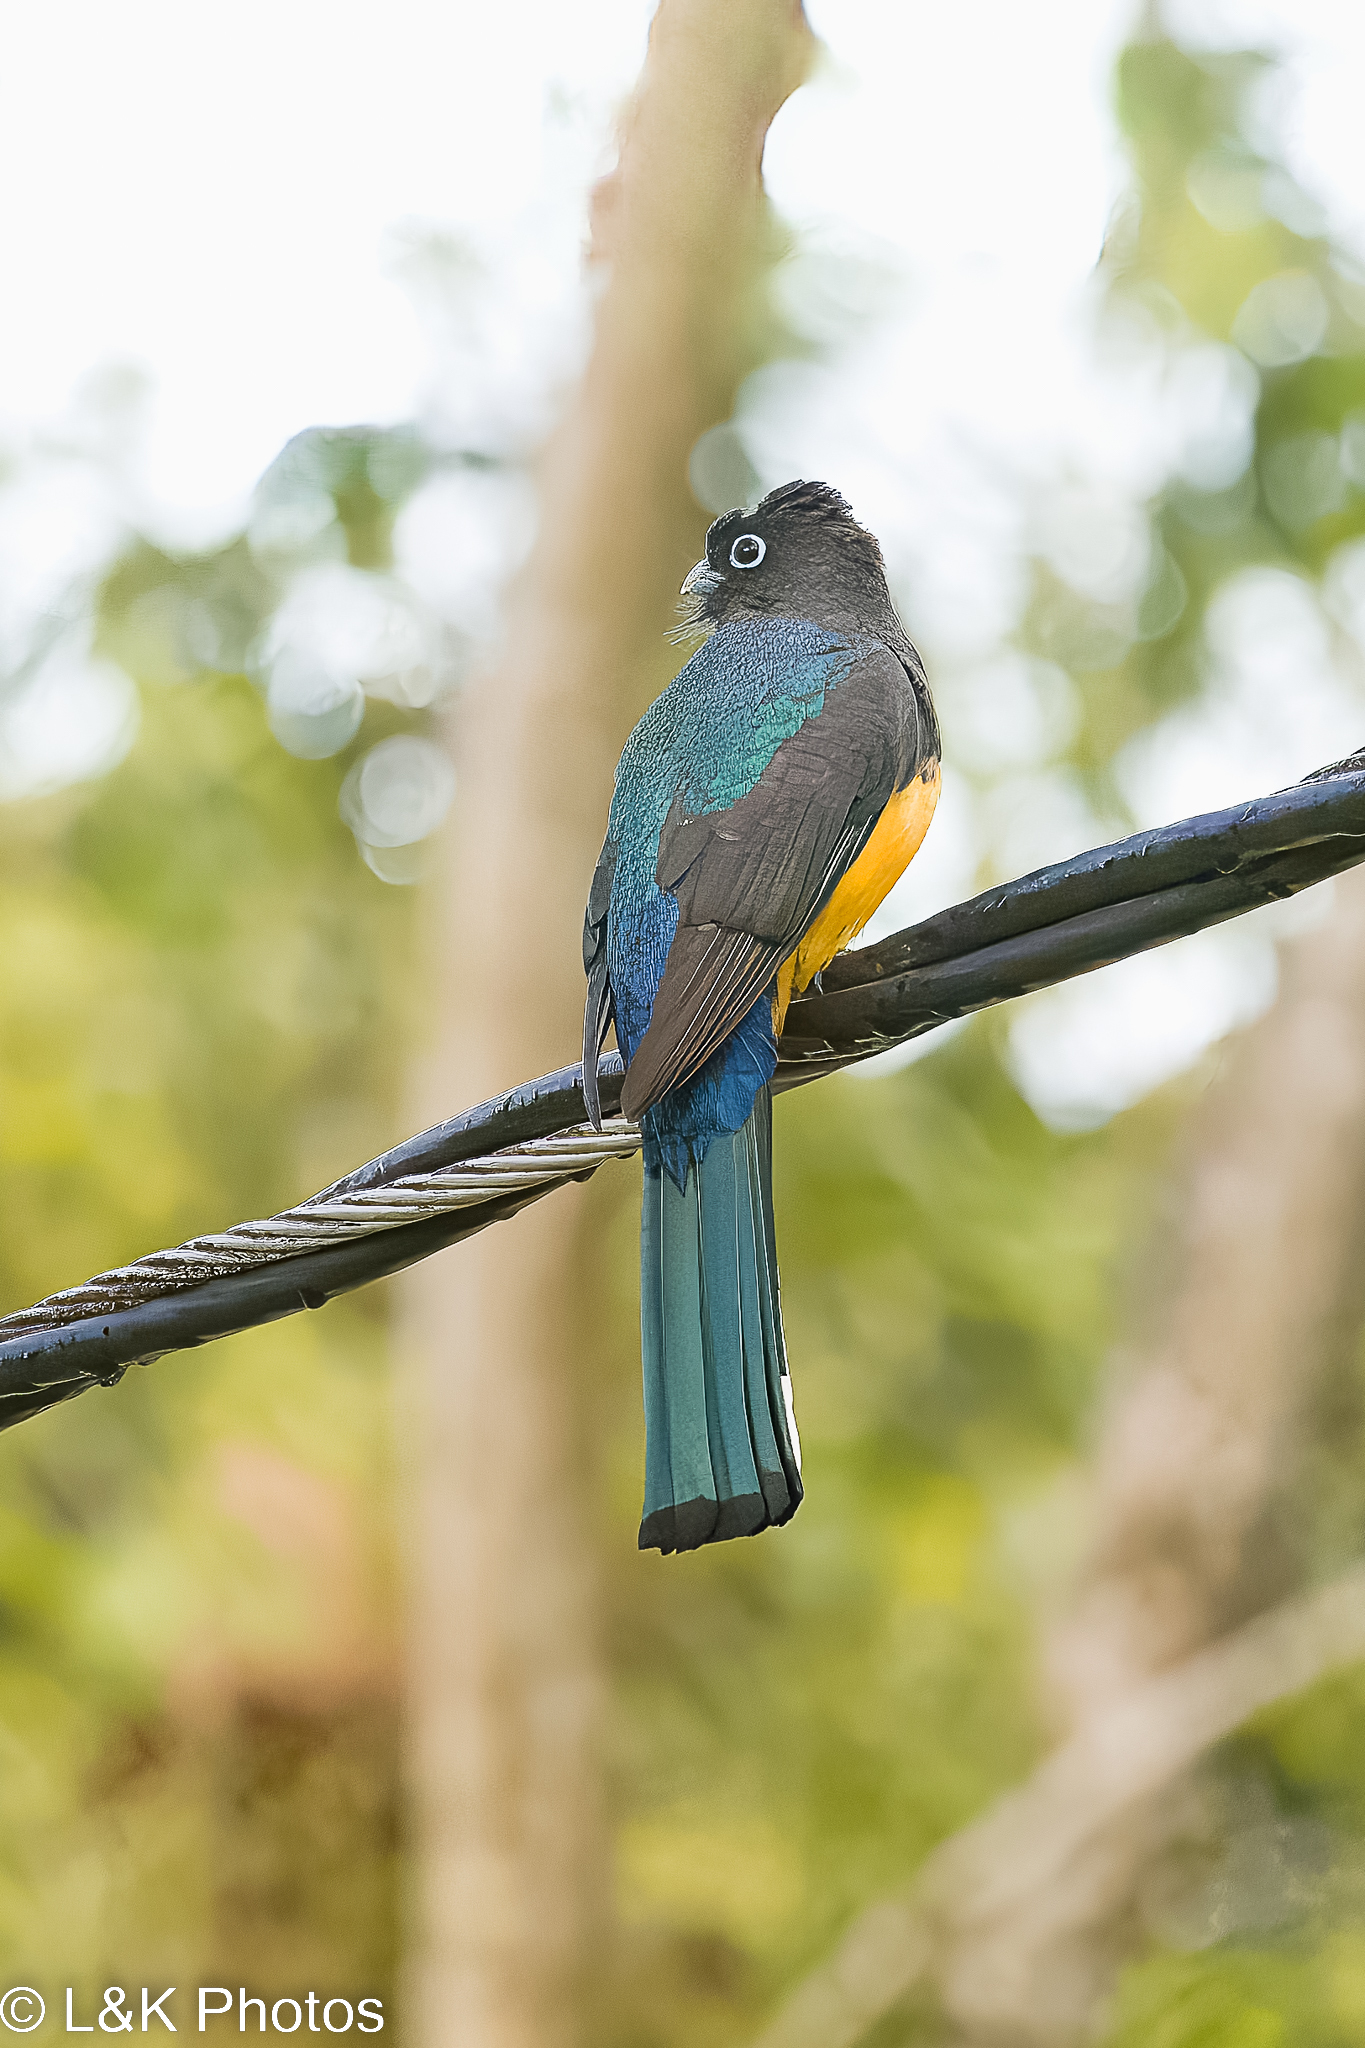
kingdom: Animalia
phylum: Chordata
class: Aves
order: Trogoniformes
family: Trogonidae
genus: Trogon
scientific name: Trogon melanocephalus
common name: Black-headed trogon
